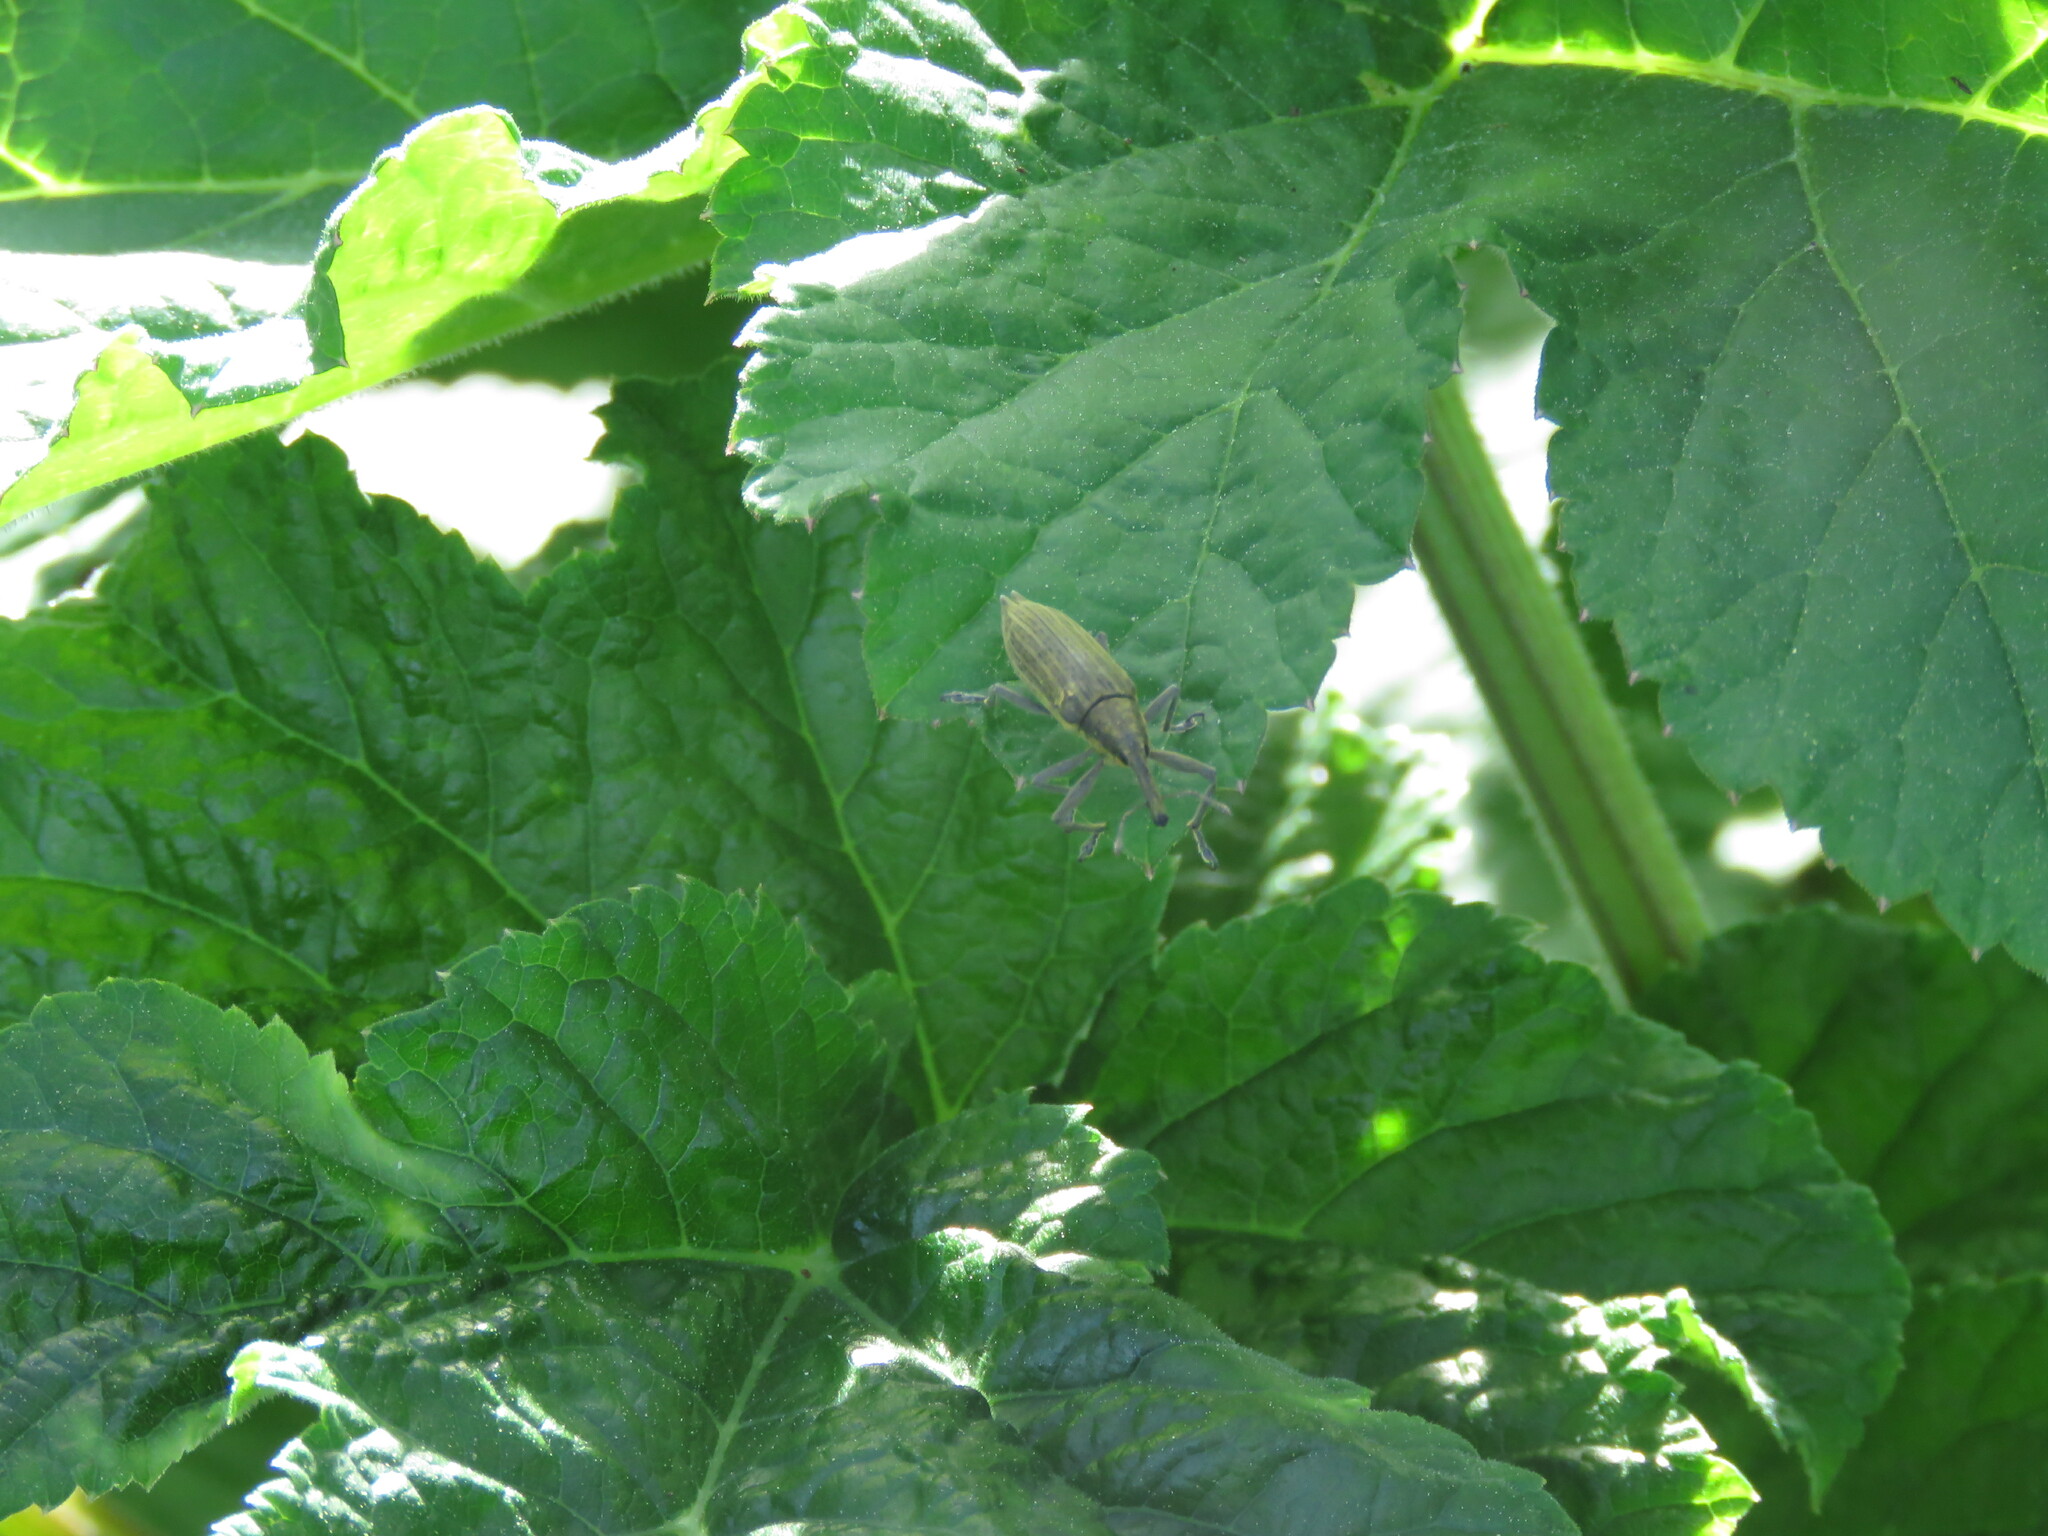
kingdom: Animalia
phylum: Arthropoda
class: Insecta
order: Coleoptera
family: Curculionidae
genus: Lixus
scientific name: Lixus iridis
